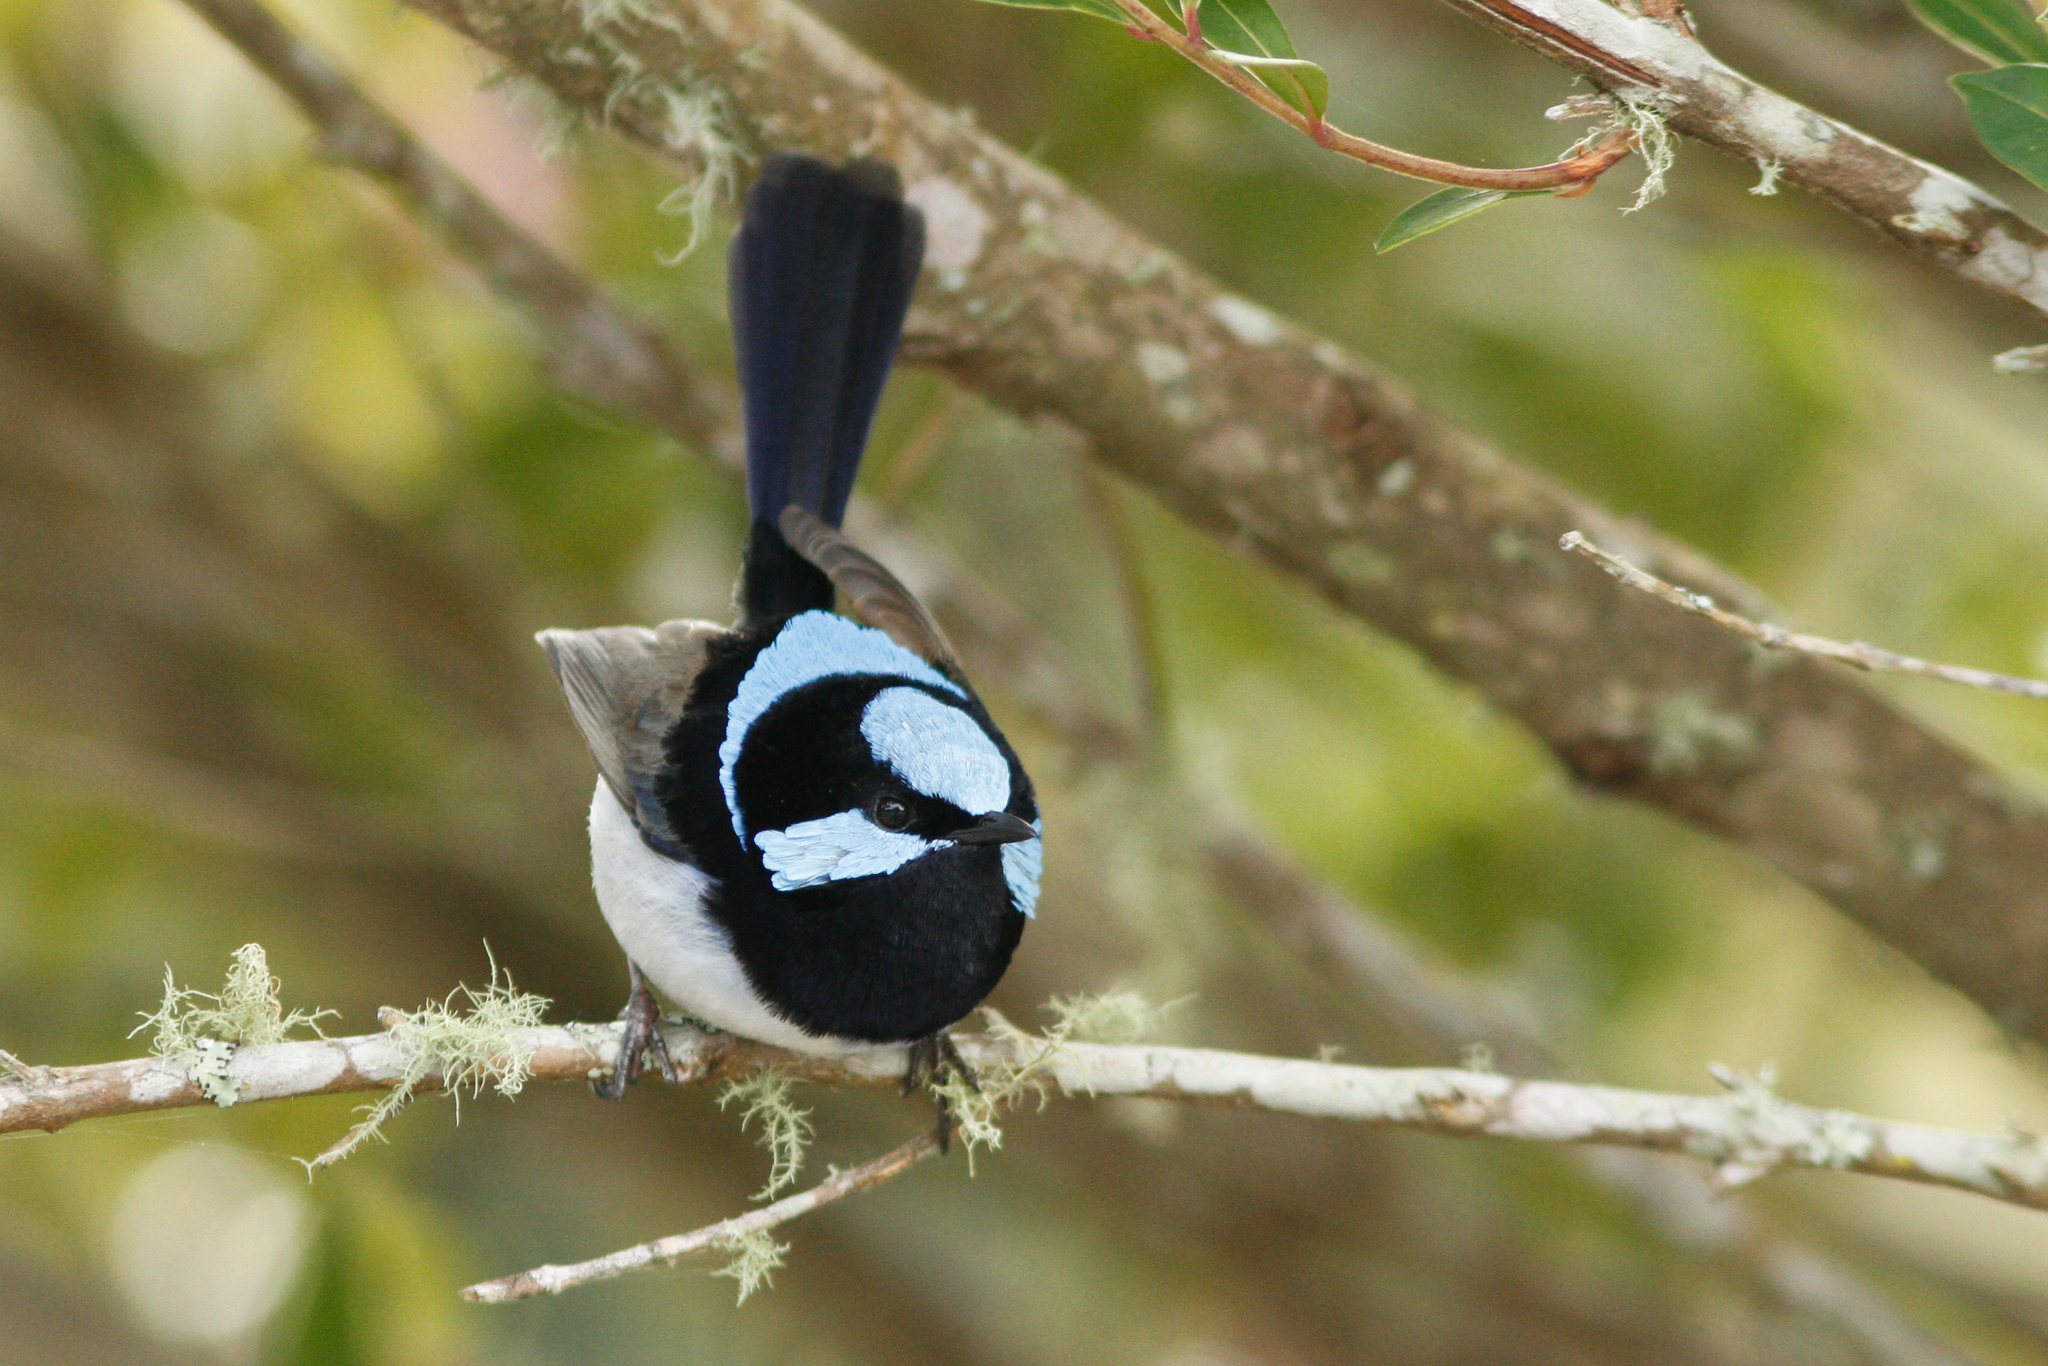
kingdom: Animalia
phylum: Chordata
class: Aves
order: Passeriformes
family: Maluridae
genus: Malurus
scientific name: Malurus cyaneus
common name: Superb fairywren
